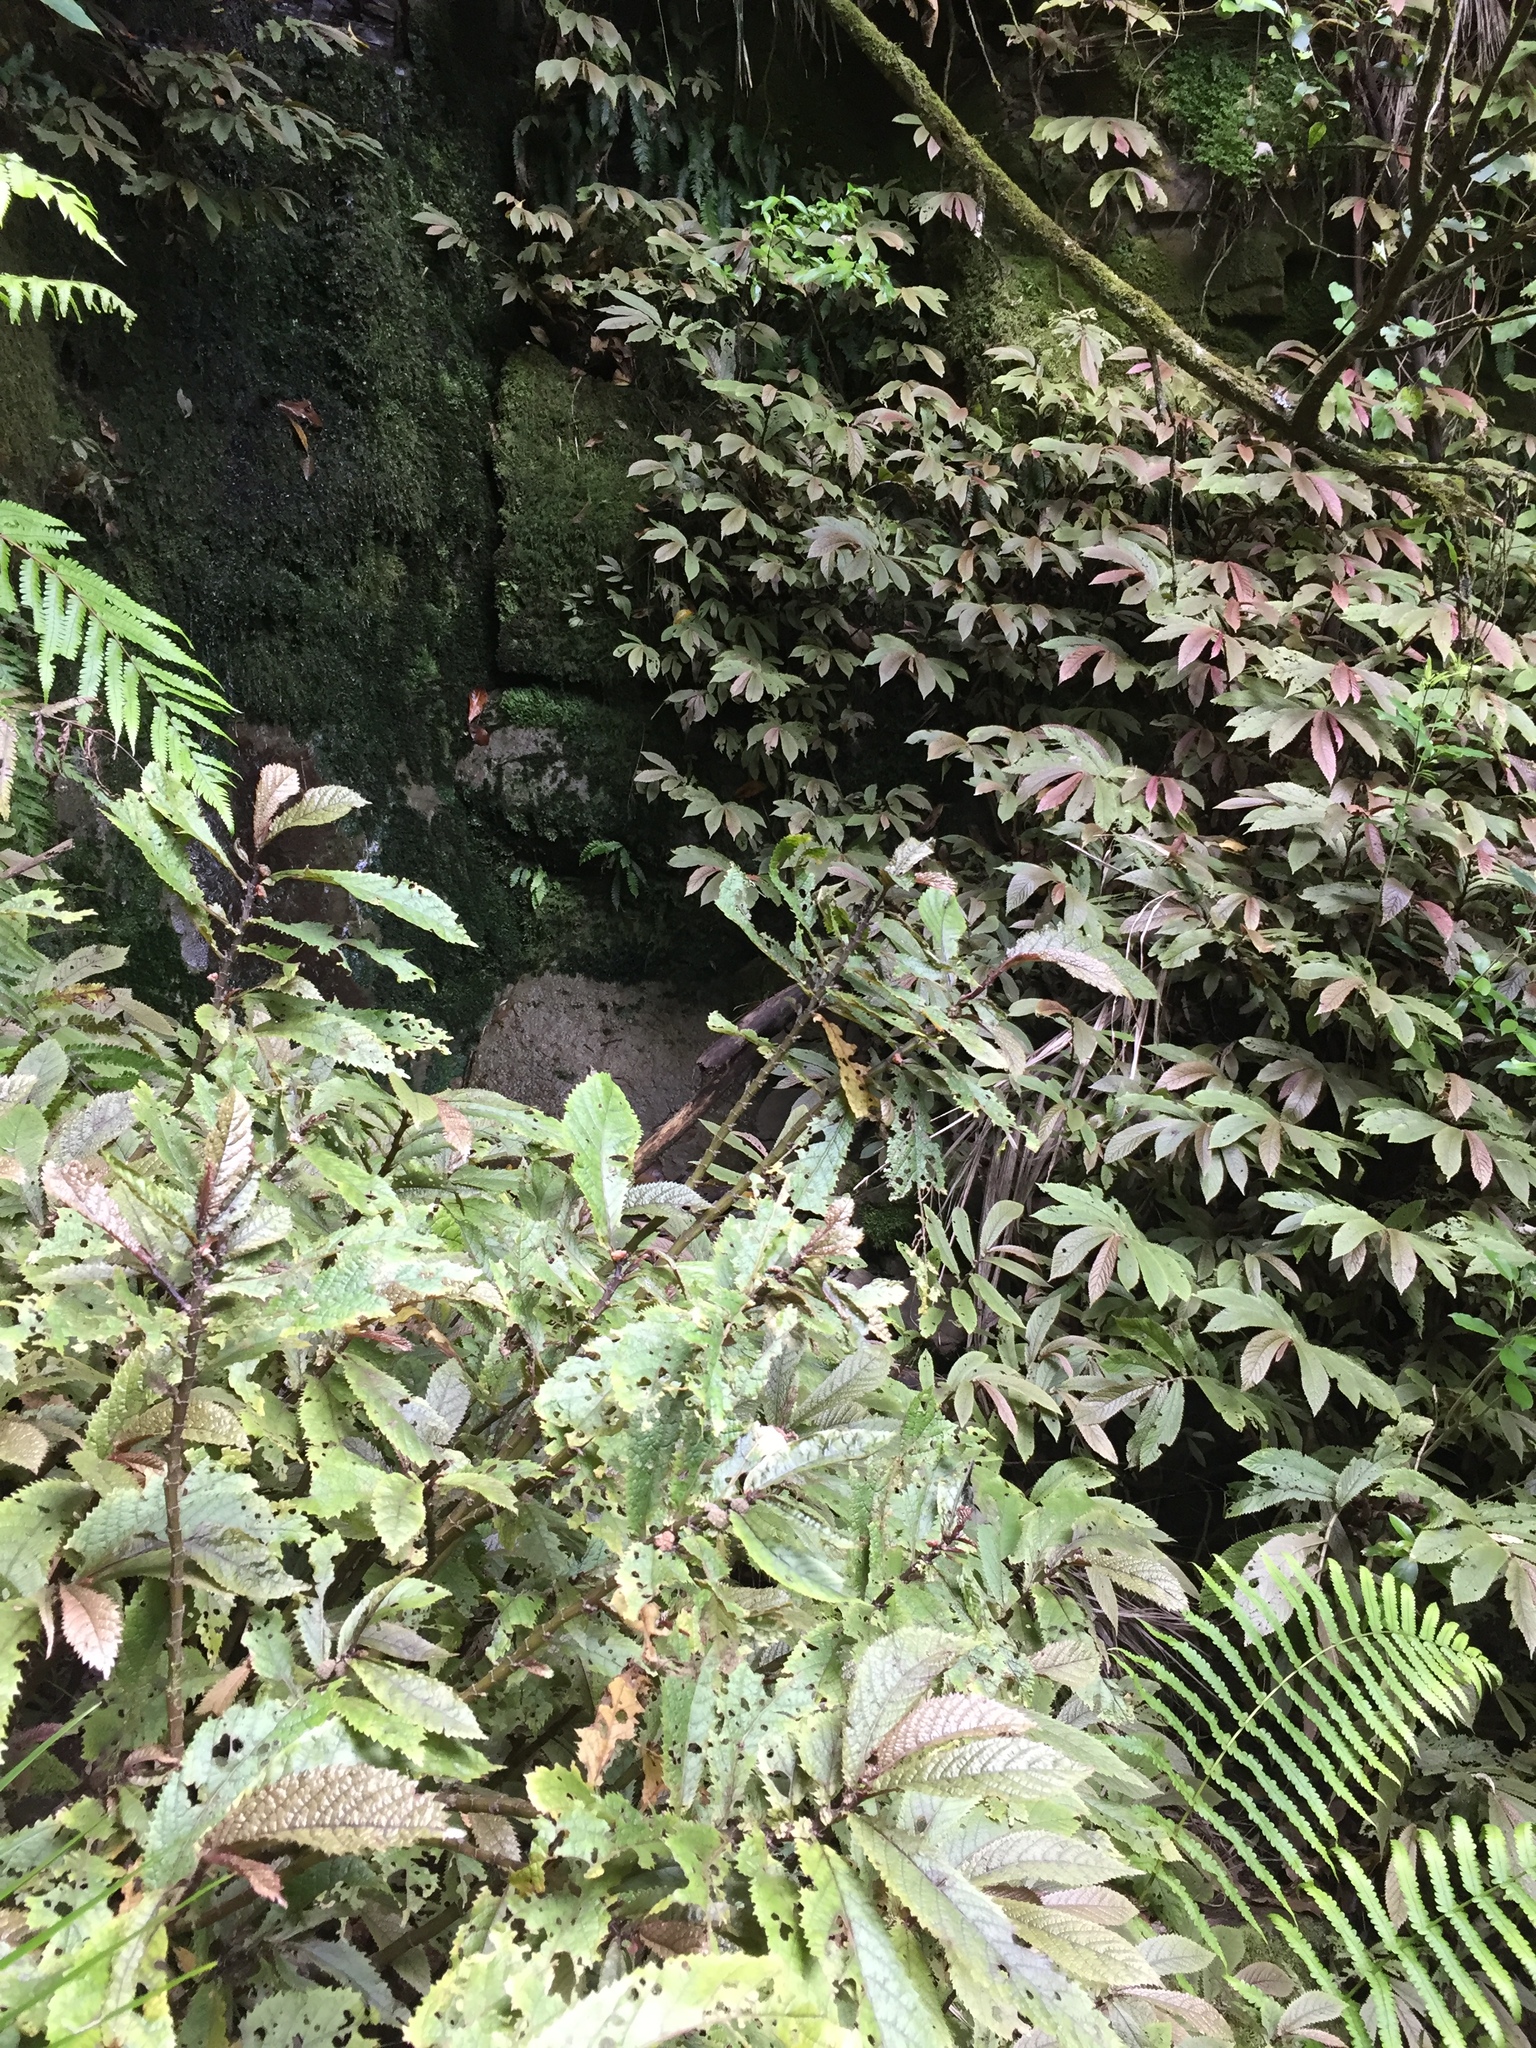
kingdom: Plantae
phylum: Tracheophyta
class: Magnoliopsida
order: Rosales
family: Urticaceae
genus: Elatostema
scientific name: Elatostema rugosum
